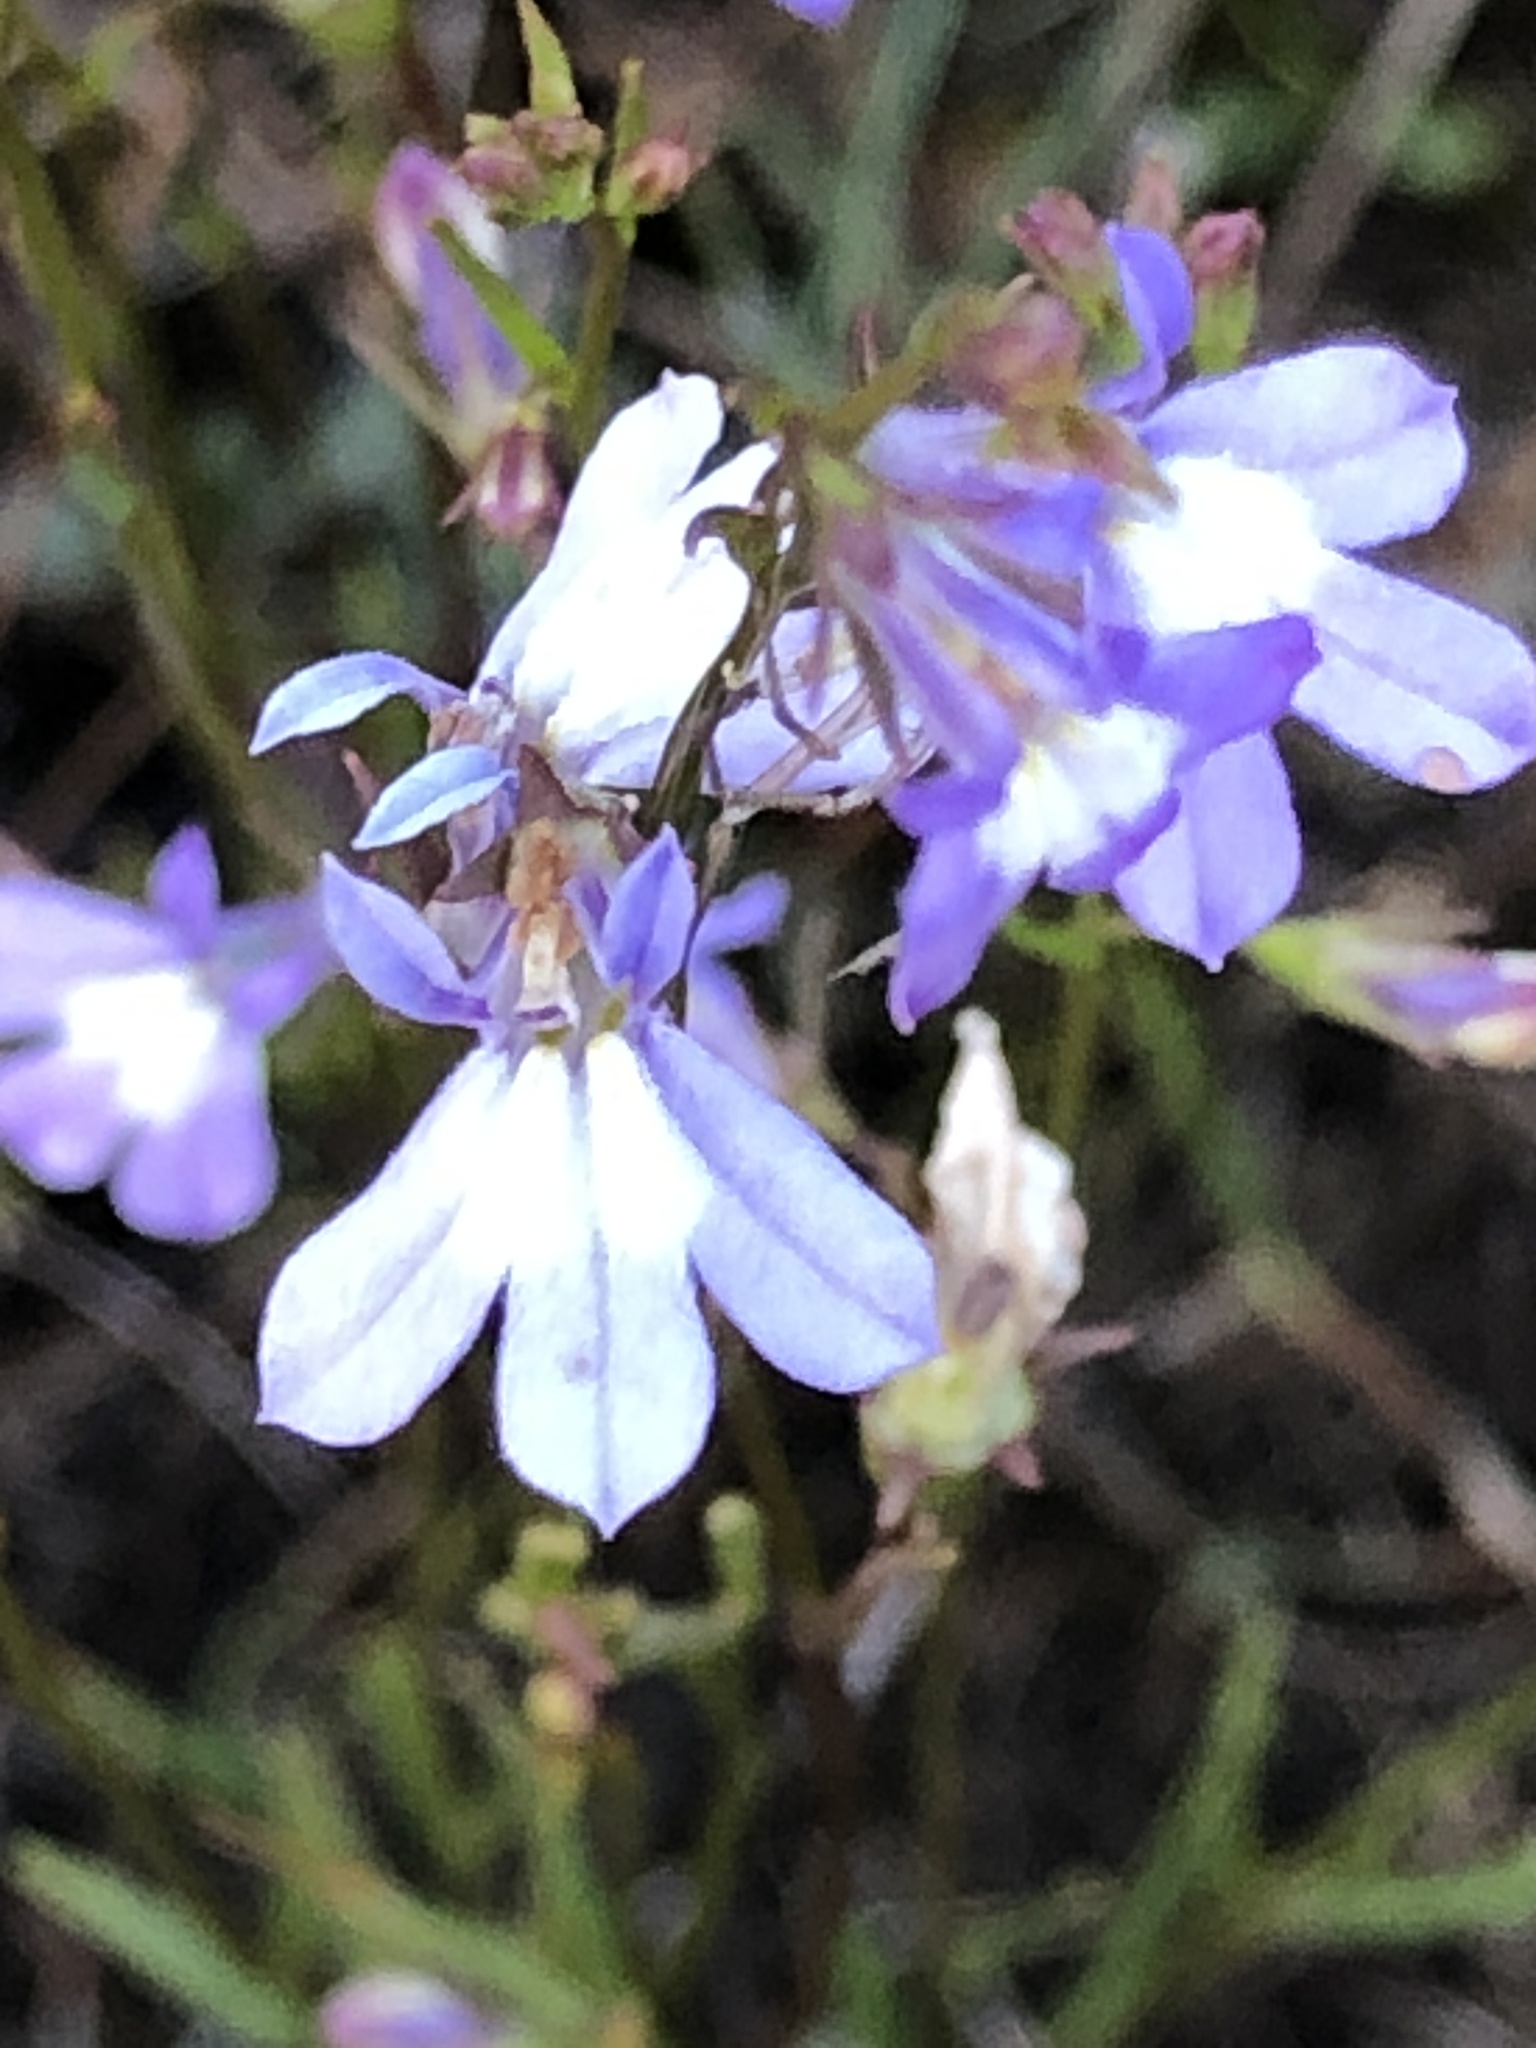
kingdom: Plantae
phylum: Tracheophyta
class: Magnoliopsida
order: Asterales
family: Campanulaceae
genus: Lobelia
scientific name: Lobelia kalmii
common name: Kalm's lobelia
